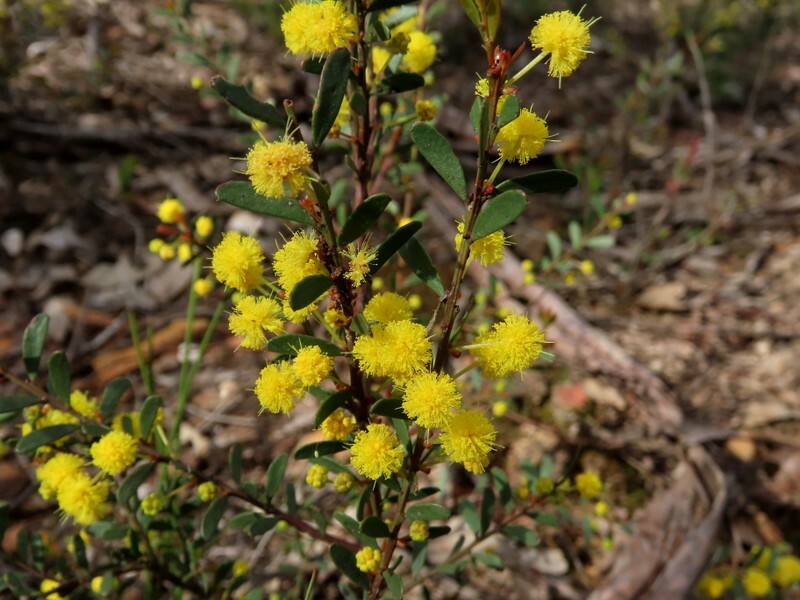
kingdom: Plantae
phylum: Tracheophyta
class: Magnoliopsida
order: Fabales
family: Fabaceae
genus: Acacia
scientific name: Acacia acinacea
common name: Gold-dust acacia
